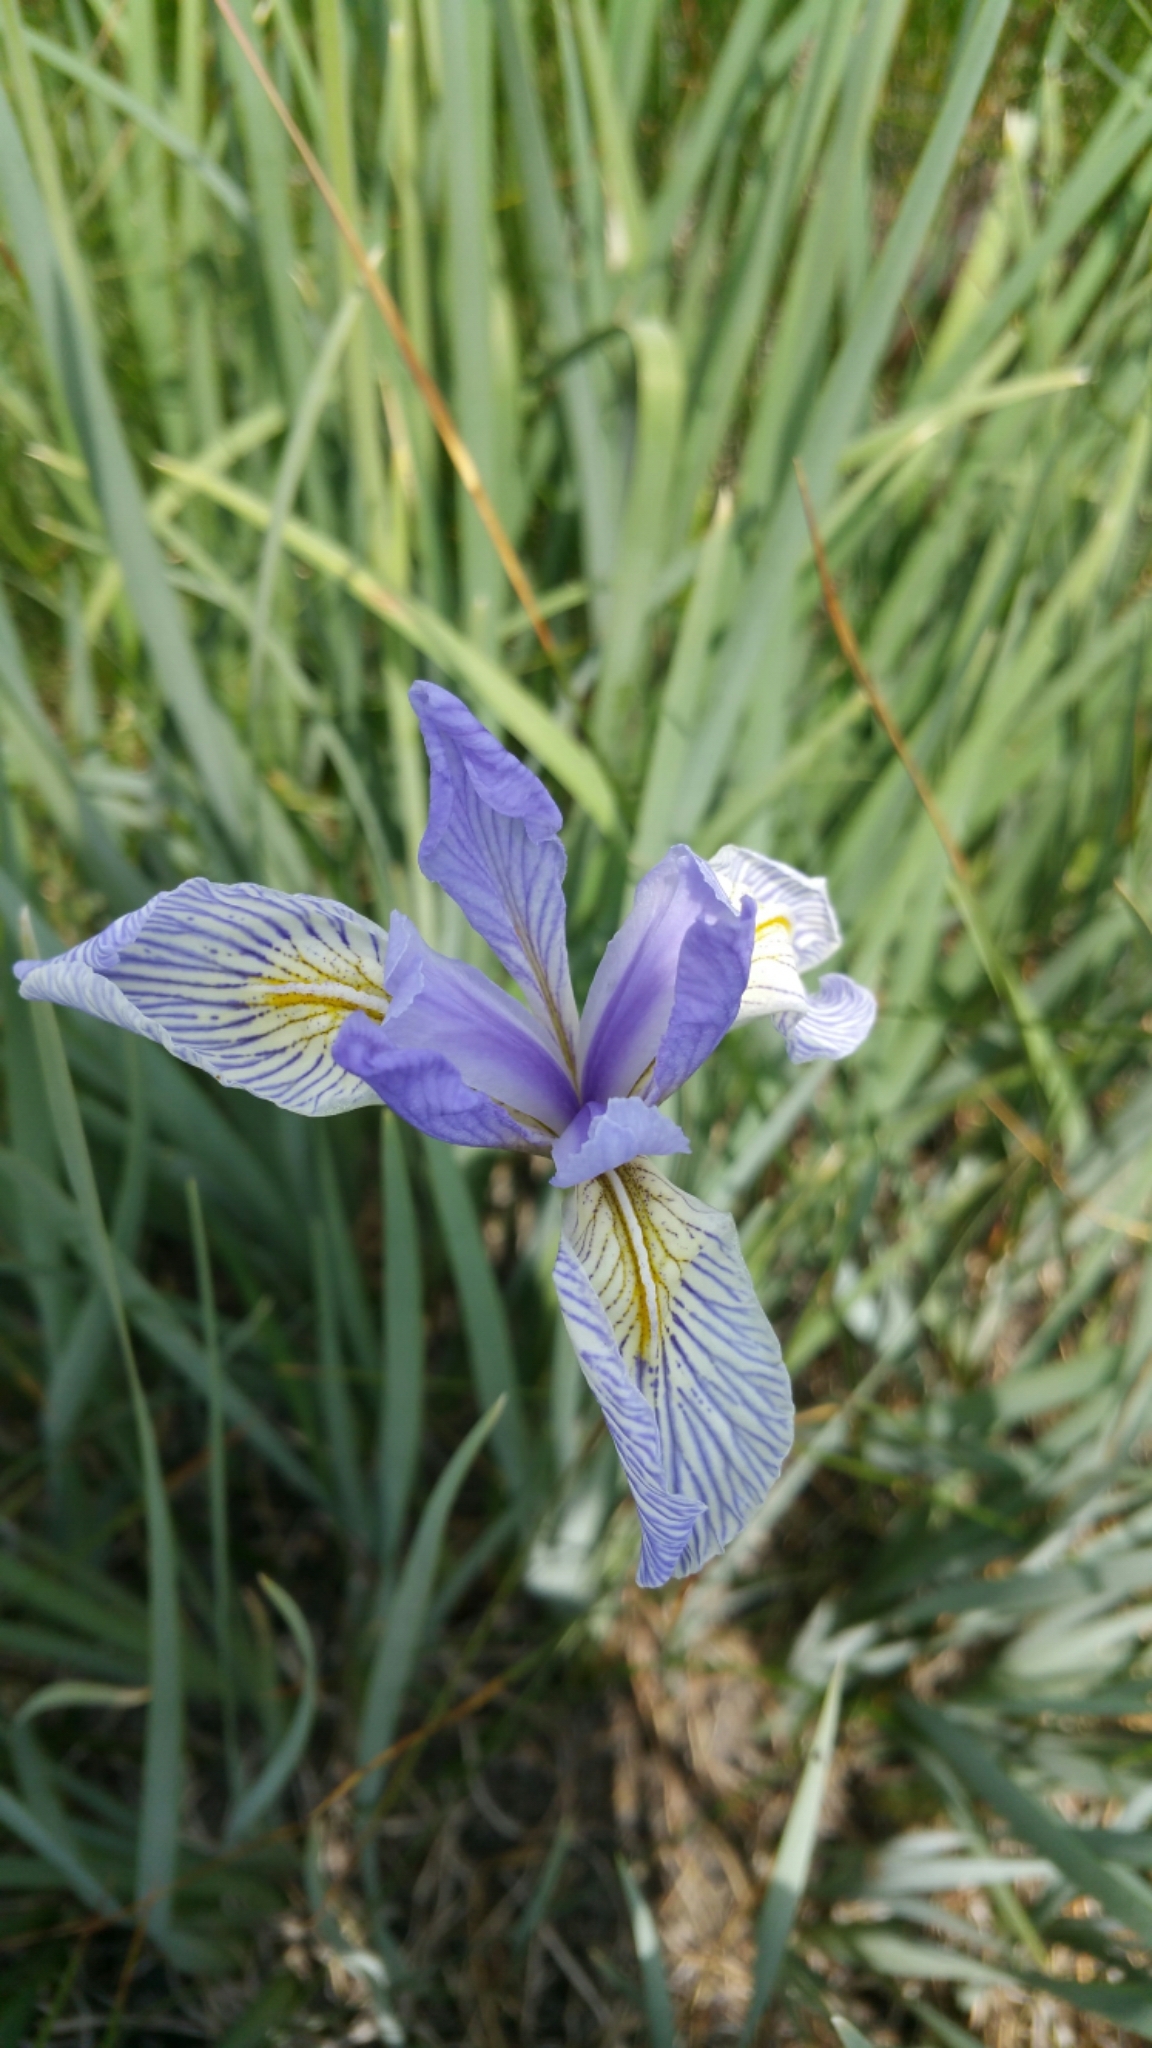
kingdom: Plantae
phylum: Tracheophyta
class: Liliopsida
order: Asparagales
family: Iridaceae
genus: Iris
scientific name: Iris missouriensis
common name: Rocky mountain iris
